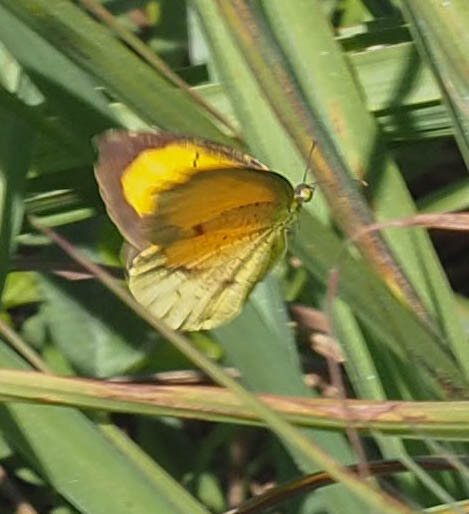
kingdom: Animalia
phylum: Arthropoda
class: Insecta
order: Lepidoptera
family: Pieridae
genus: Abaeis
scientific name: Abaeis nicippe
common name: Sleepy orange
